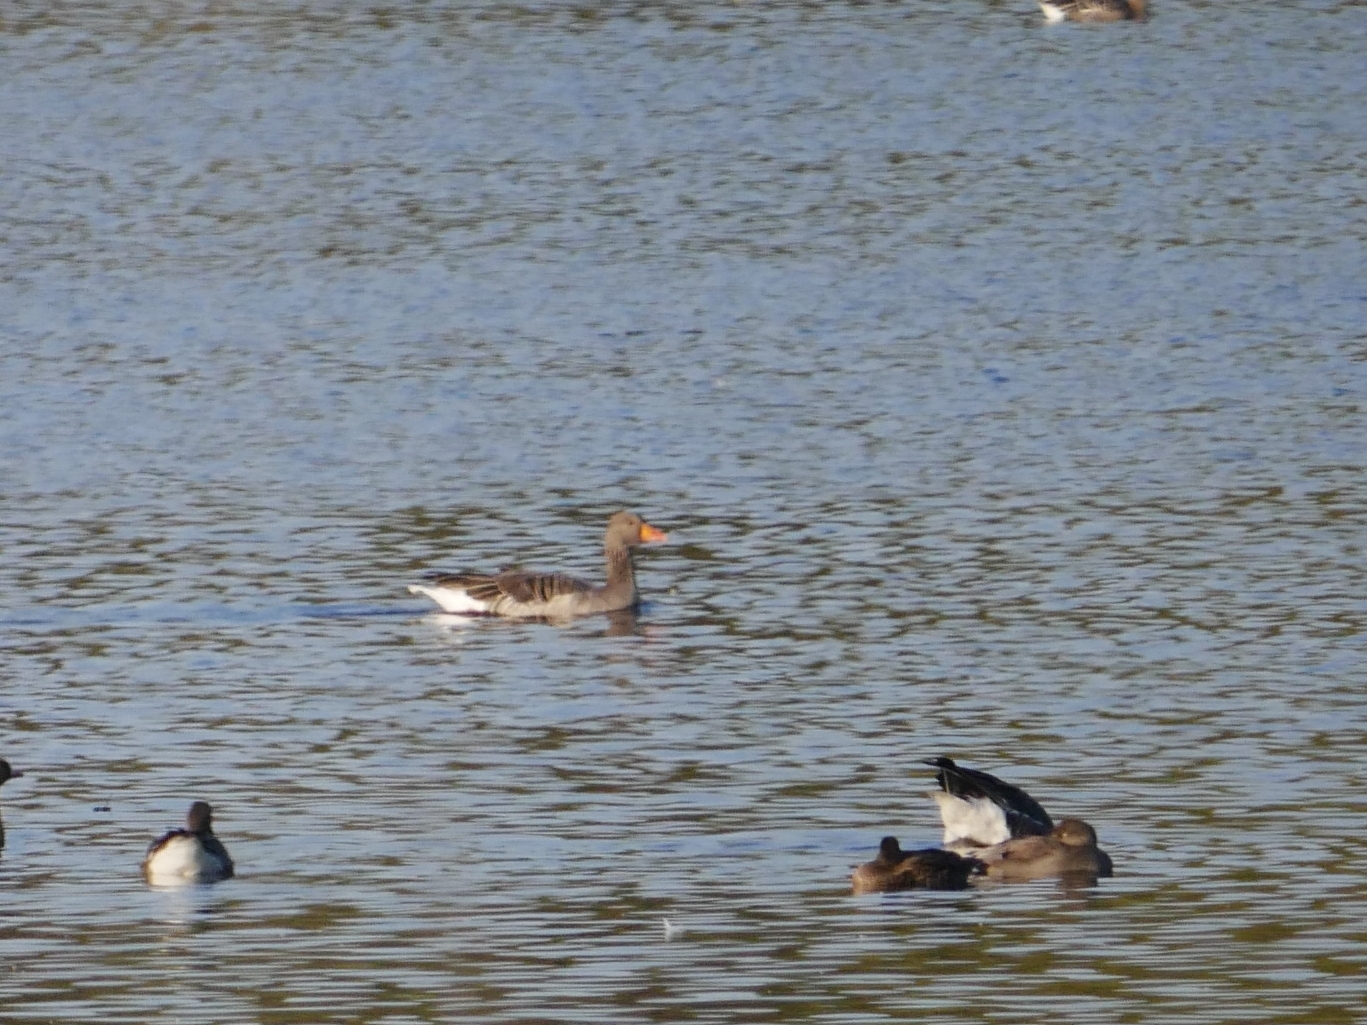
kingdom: Animalia
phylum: Chordata
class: Aves
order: Anseriformes
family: Anatidae
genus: Anser
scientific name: Anser anser
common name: Greylag goose
